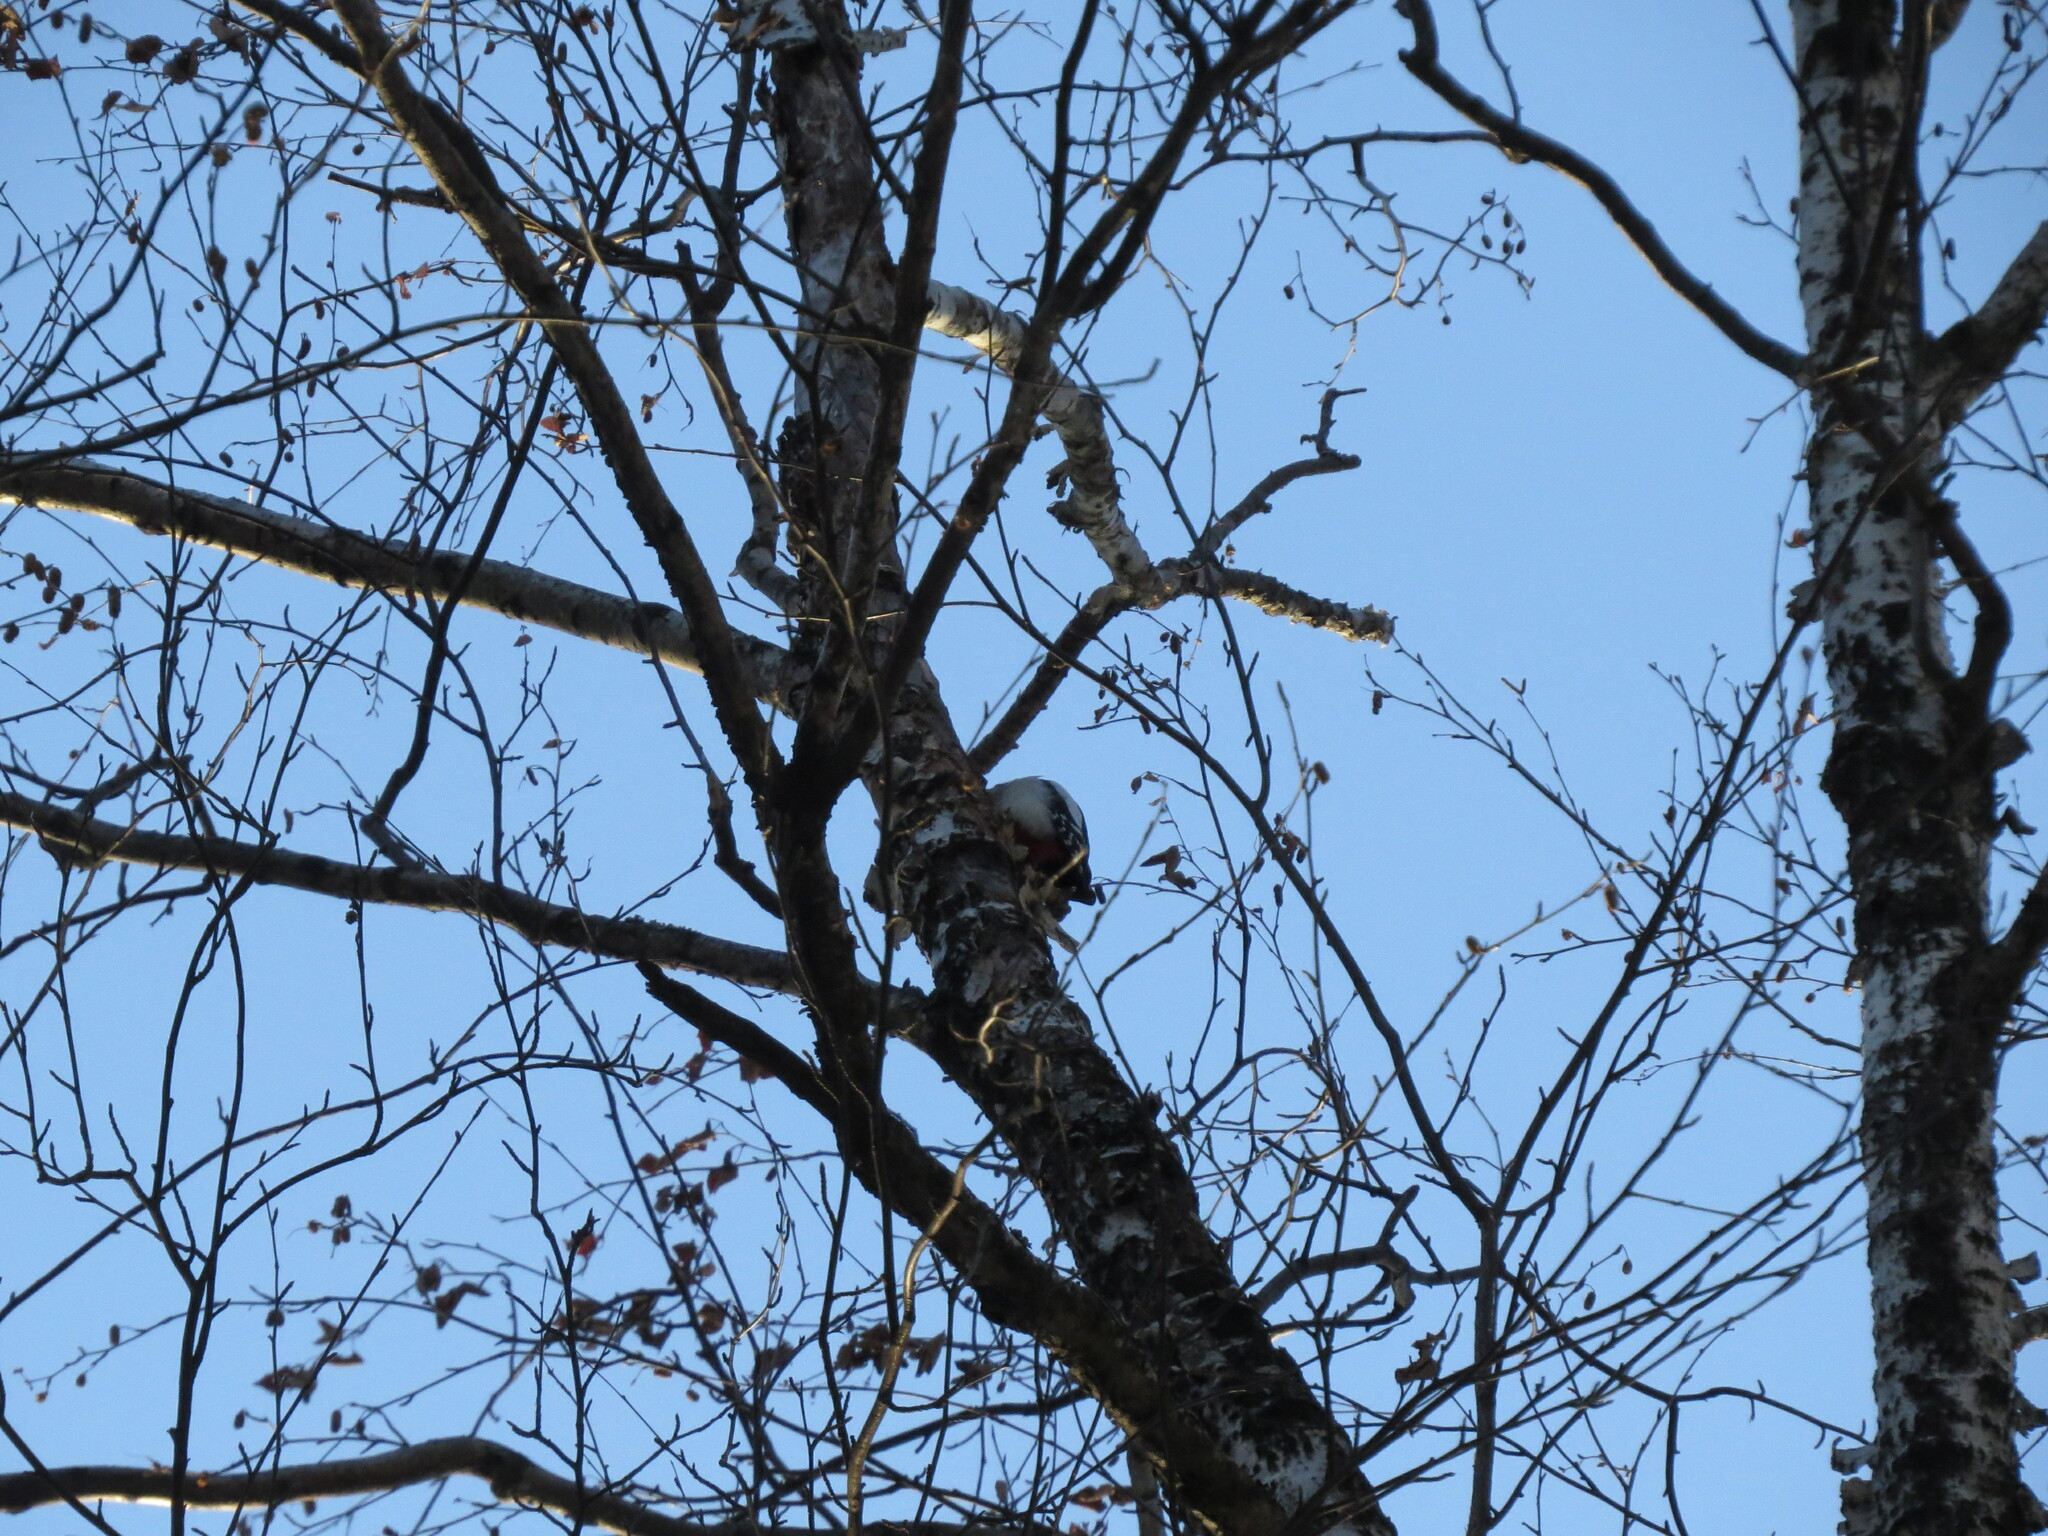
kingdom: Animalia
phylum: Chordata
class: Aves
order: Piciformes
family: Picidae
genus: Dendrocopos
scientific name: Dendrocopos major
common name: Great spotted woodpecker
